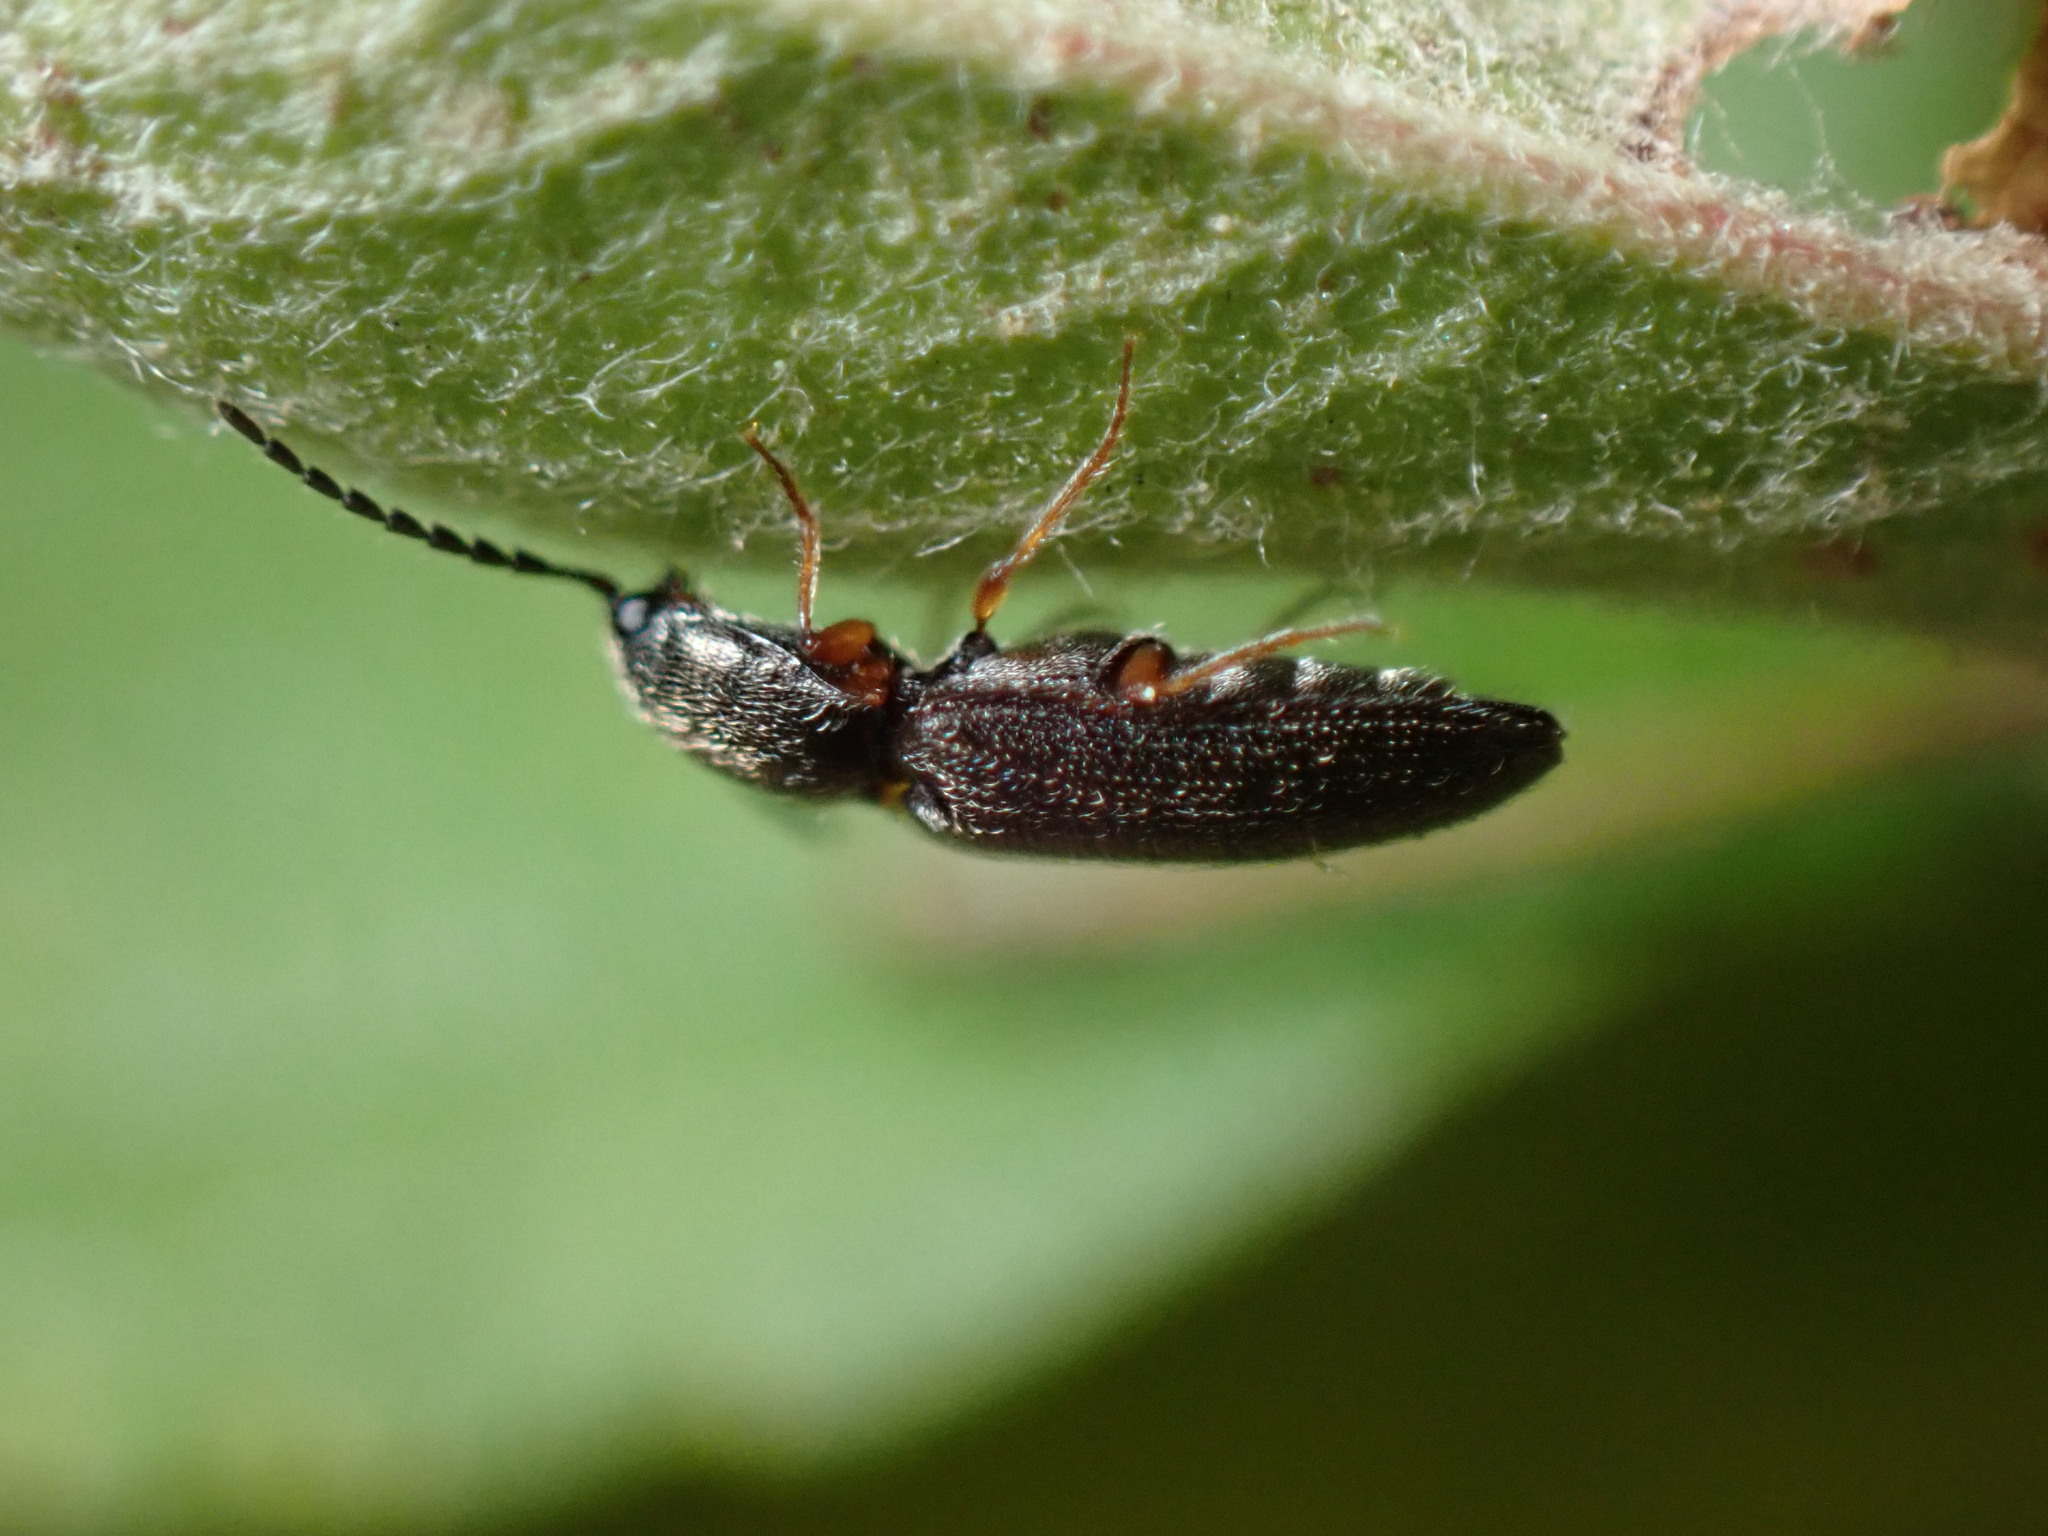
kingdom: Animalia
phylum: Arthropoda
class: Insecta
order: Coleoptera
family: Elateridae
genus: Limonius
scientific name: Limonius basilaris
